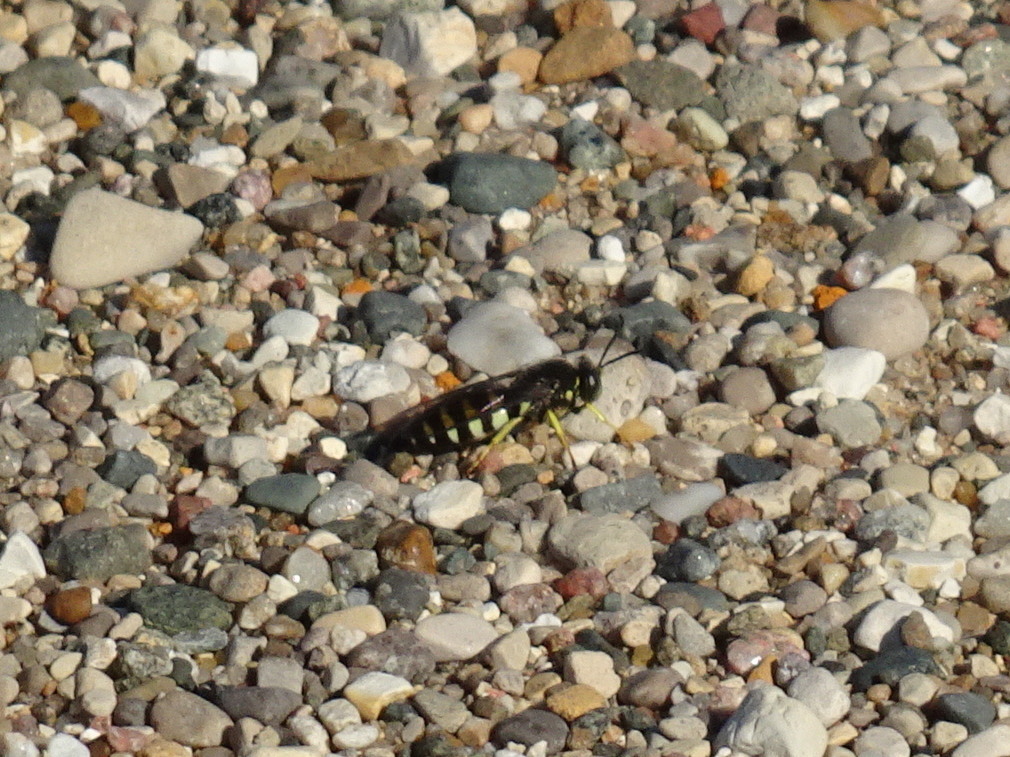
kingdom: Animalia
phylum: Arthropoda
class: Insecta
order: Hymenoptera
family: Crabronidae
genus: Bicyrtes
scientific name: Bicyrtes quadrifasciatus
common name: Four-banded stink bug hunter wasp
